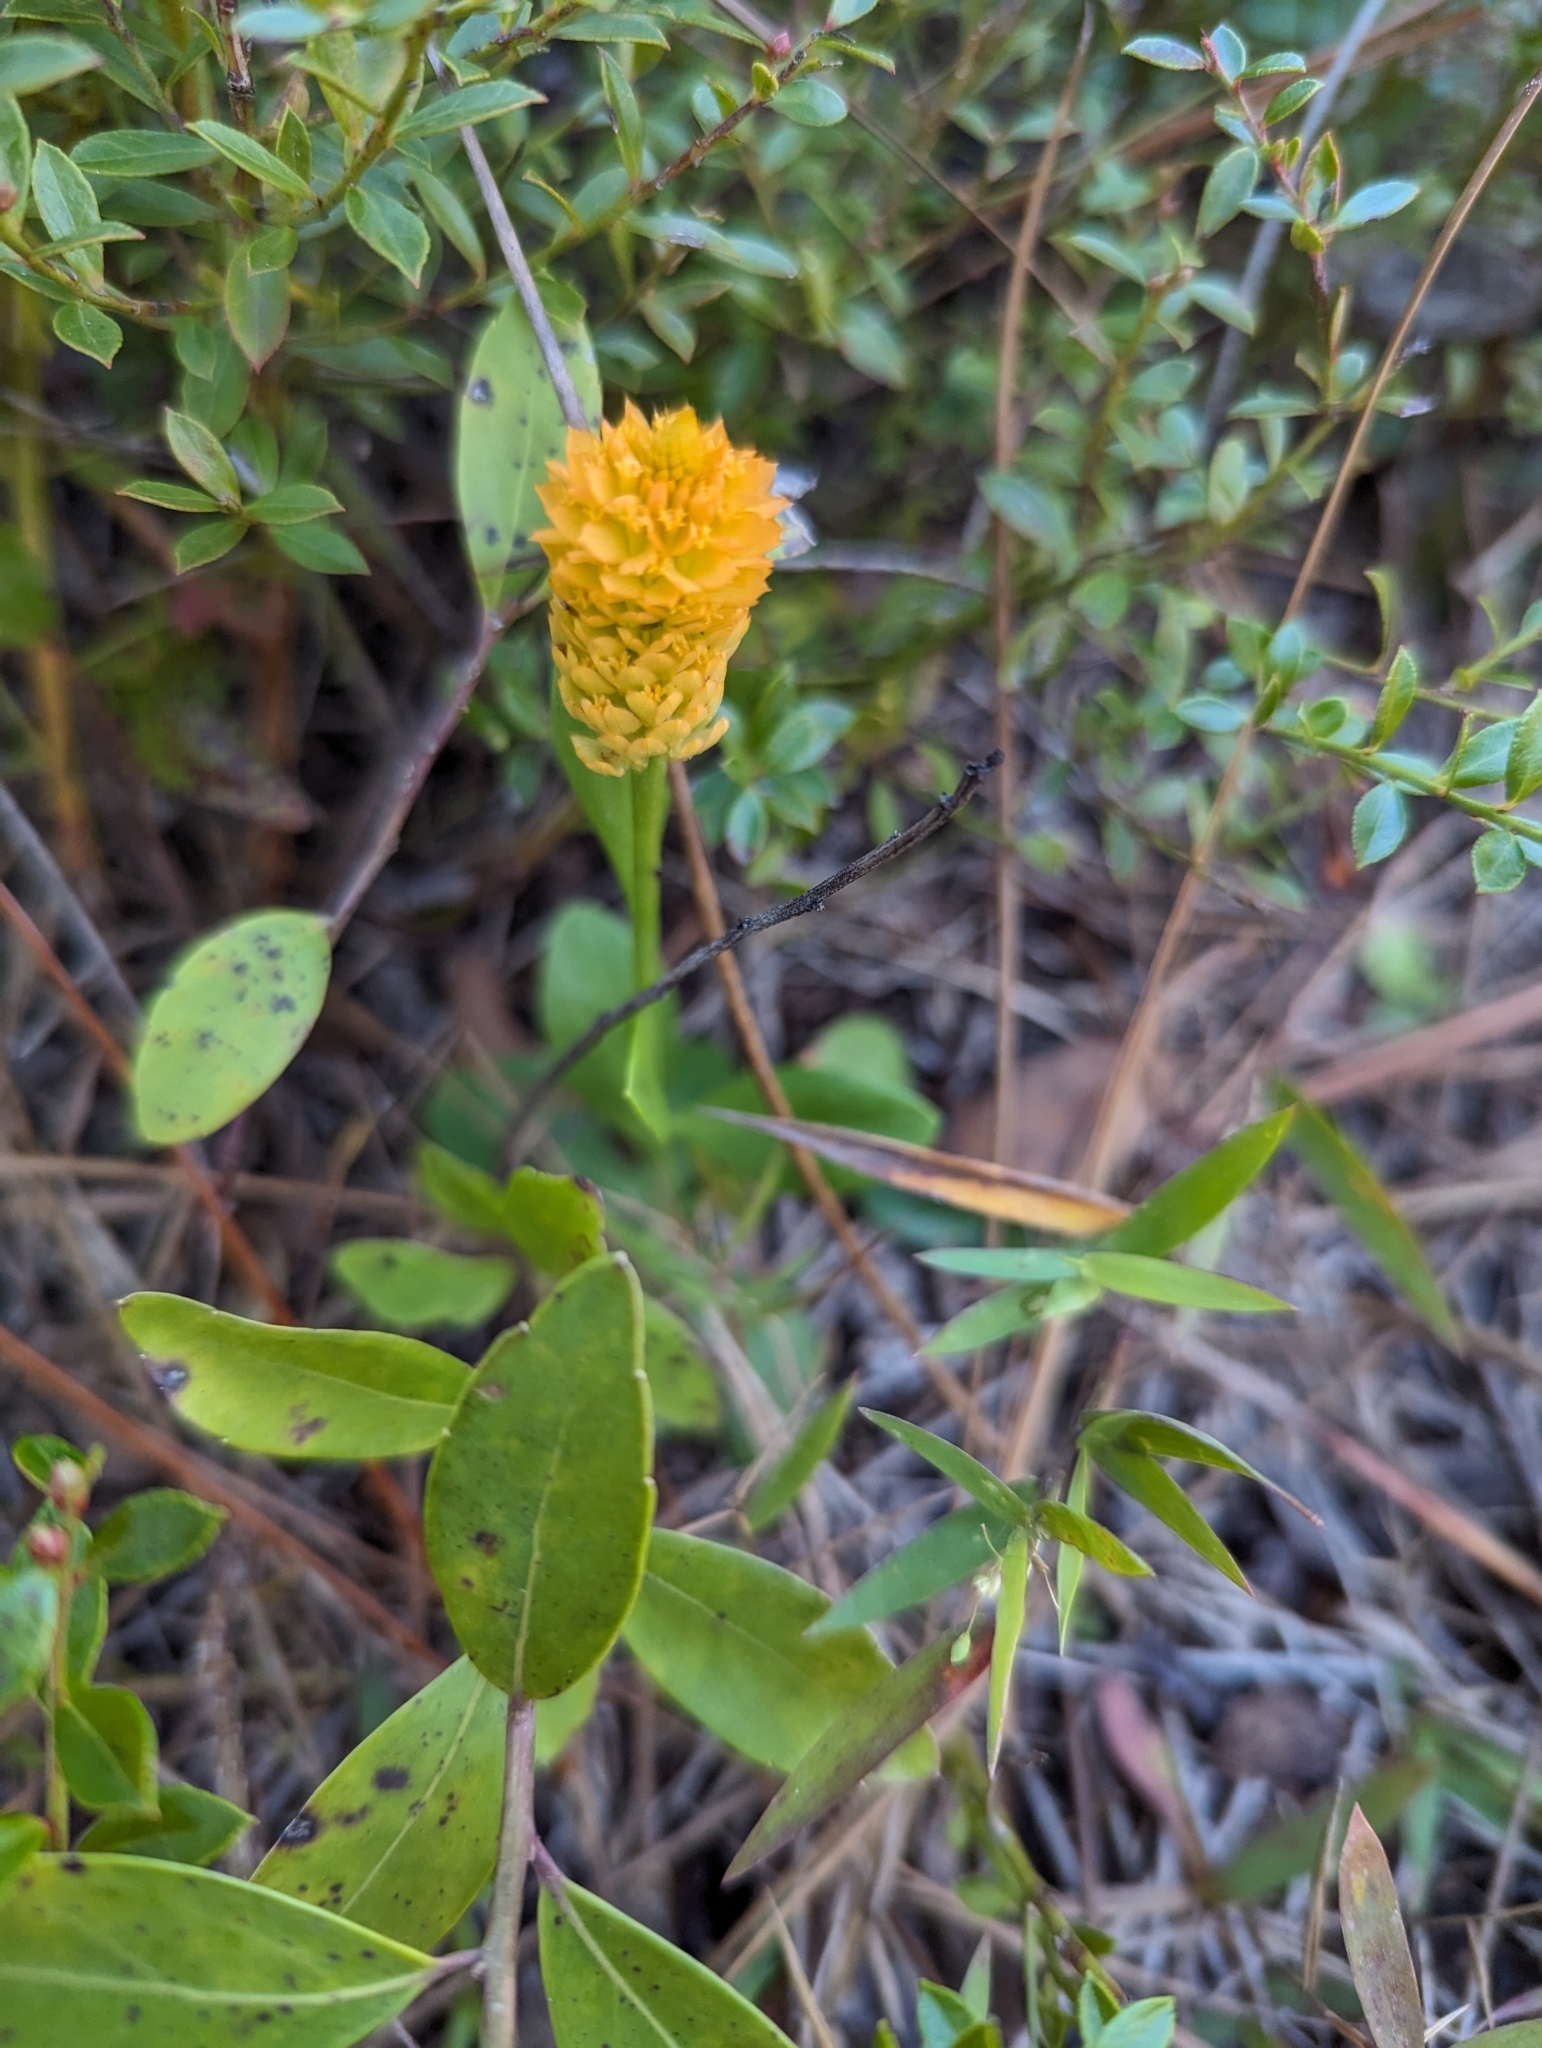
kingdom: Plantae
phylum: Tracheophyta
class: Magnoliopsida
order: Fabales
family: Polygalaceae
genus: Polygala
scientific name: Polygala lutea
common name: Orange milkwort
